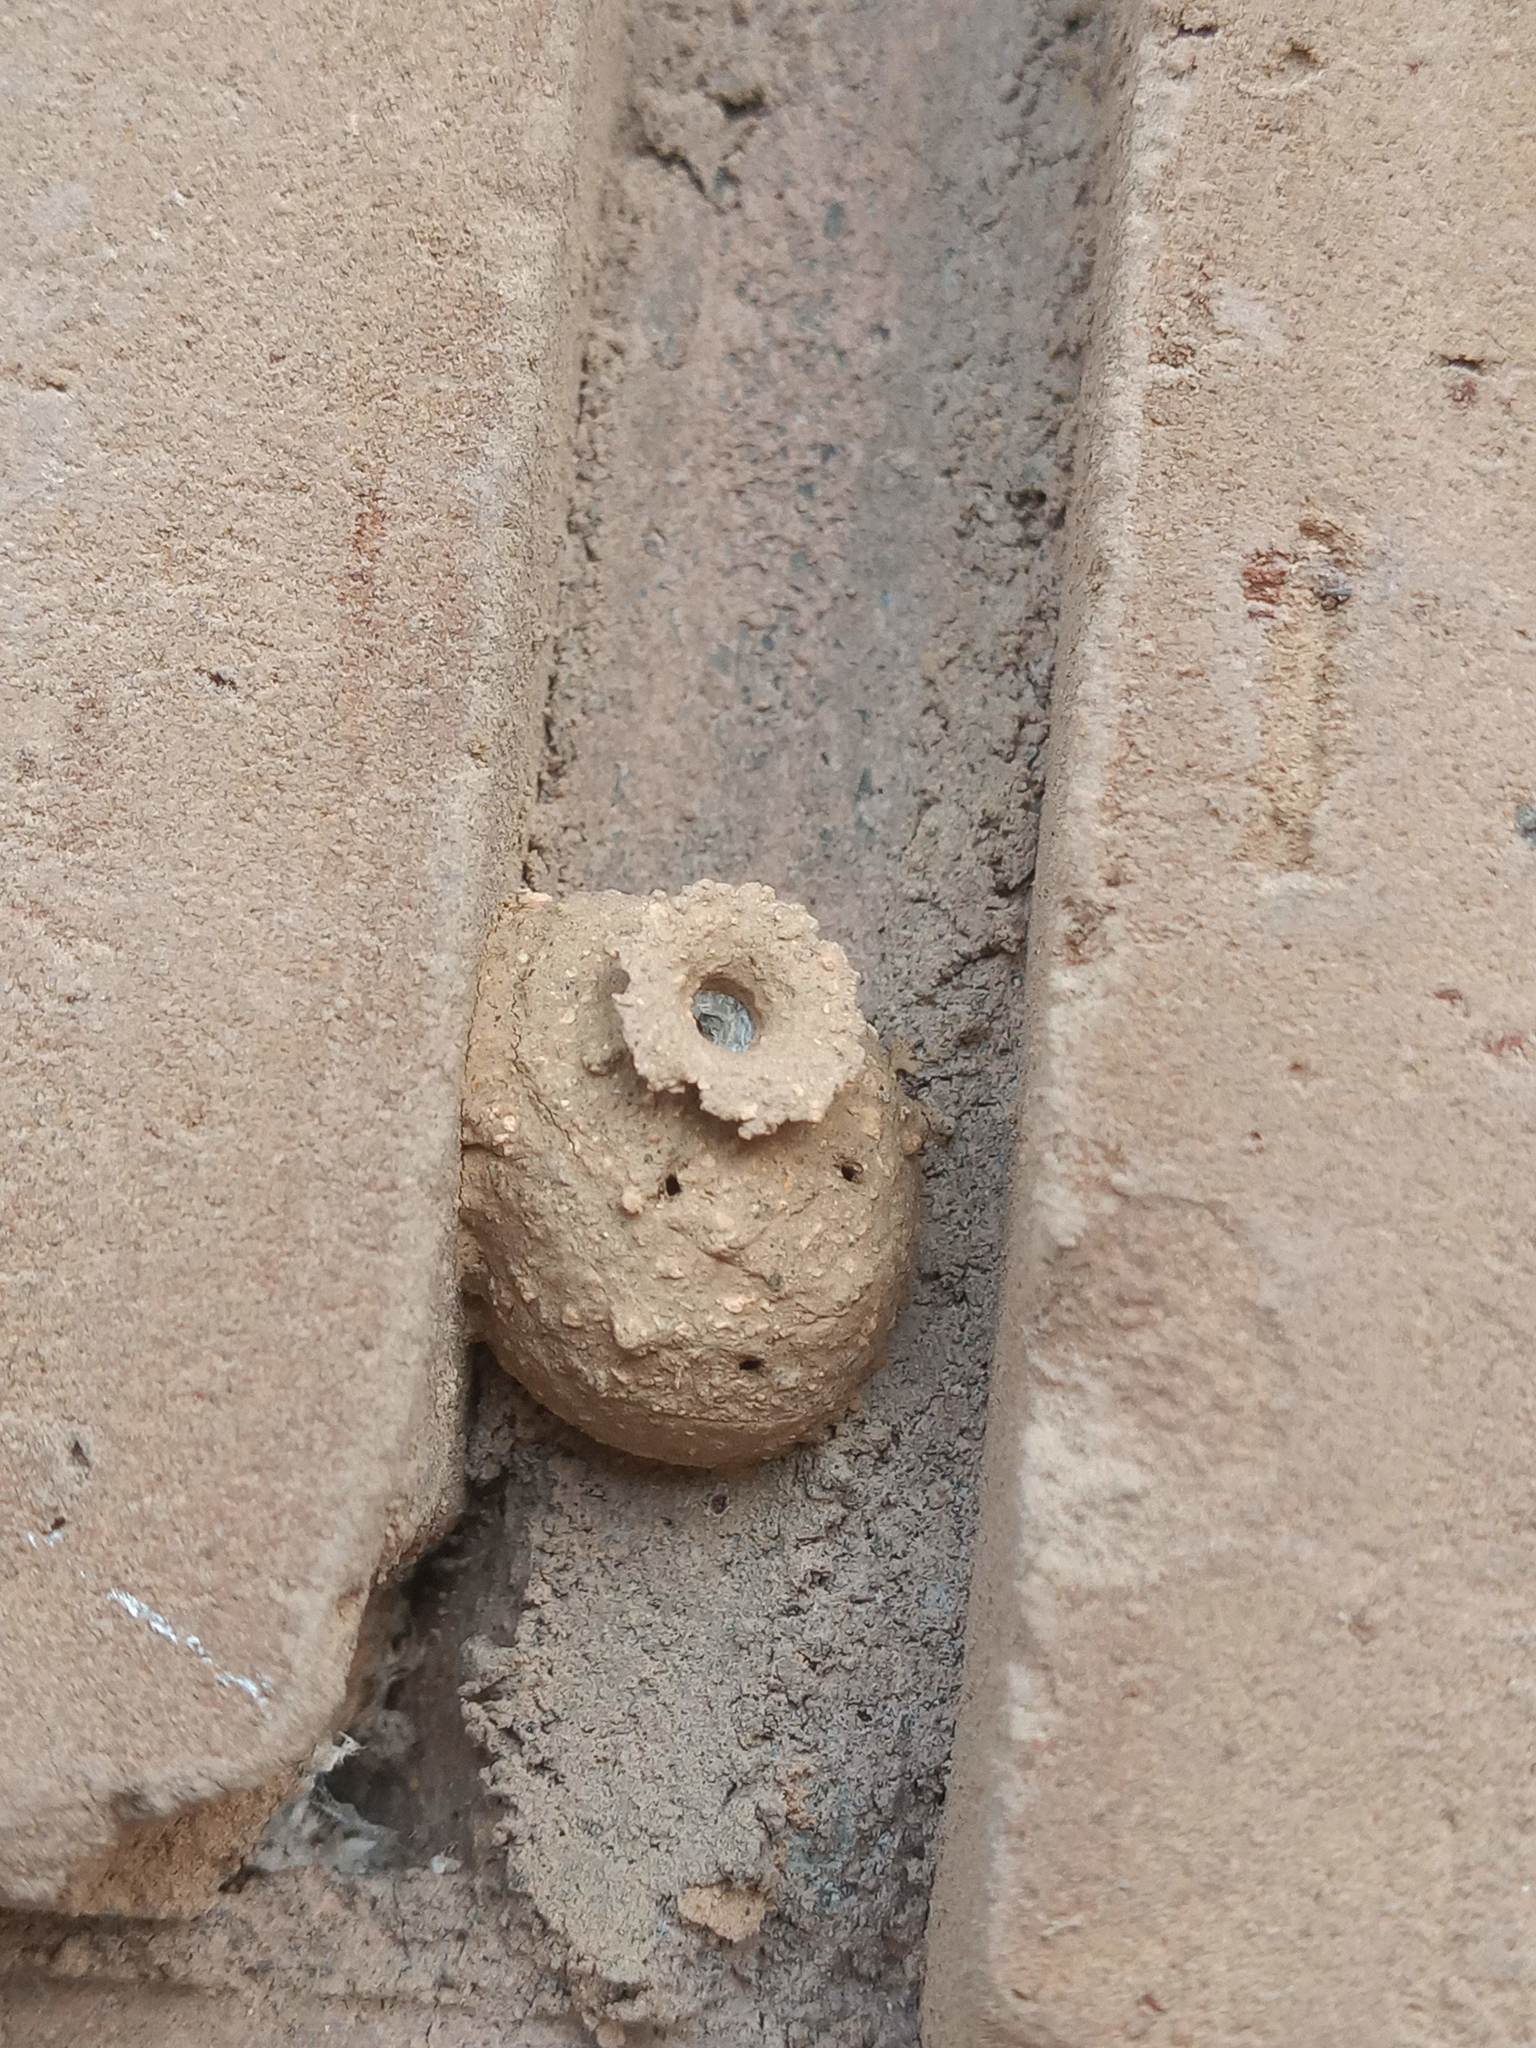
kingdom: Animalia
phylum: Arthropoda
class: Insecta
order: Hymenoptera
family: Vespidae
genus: Eumenes
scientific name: Eumenes
